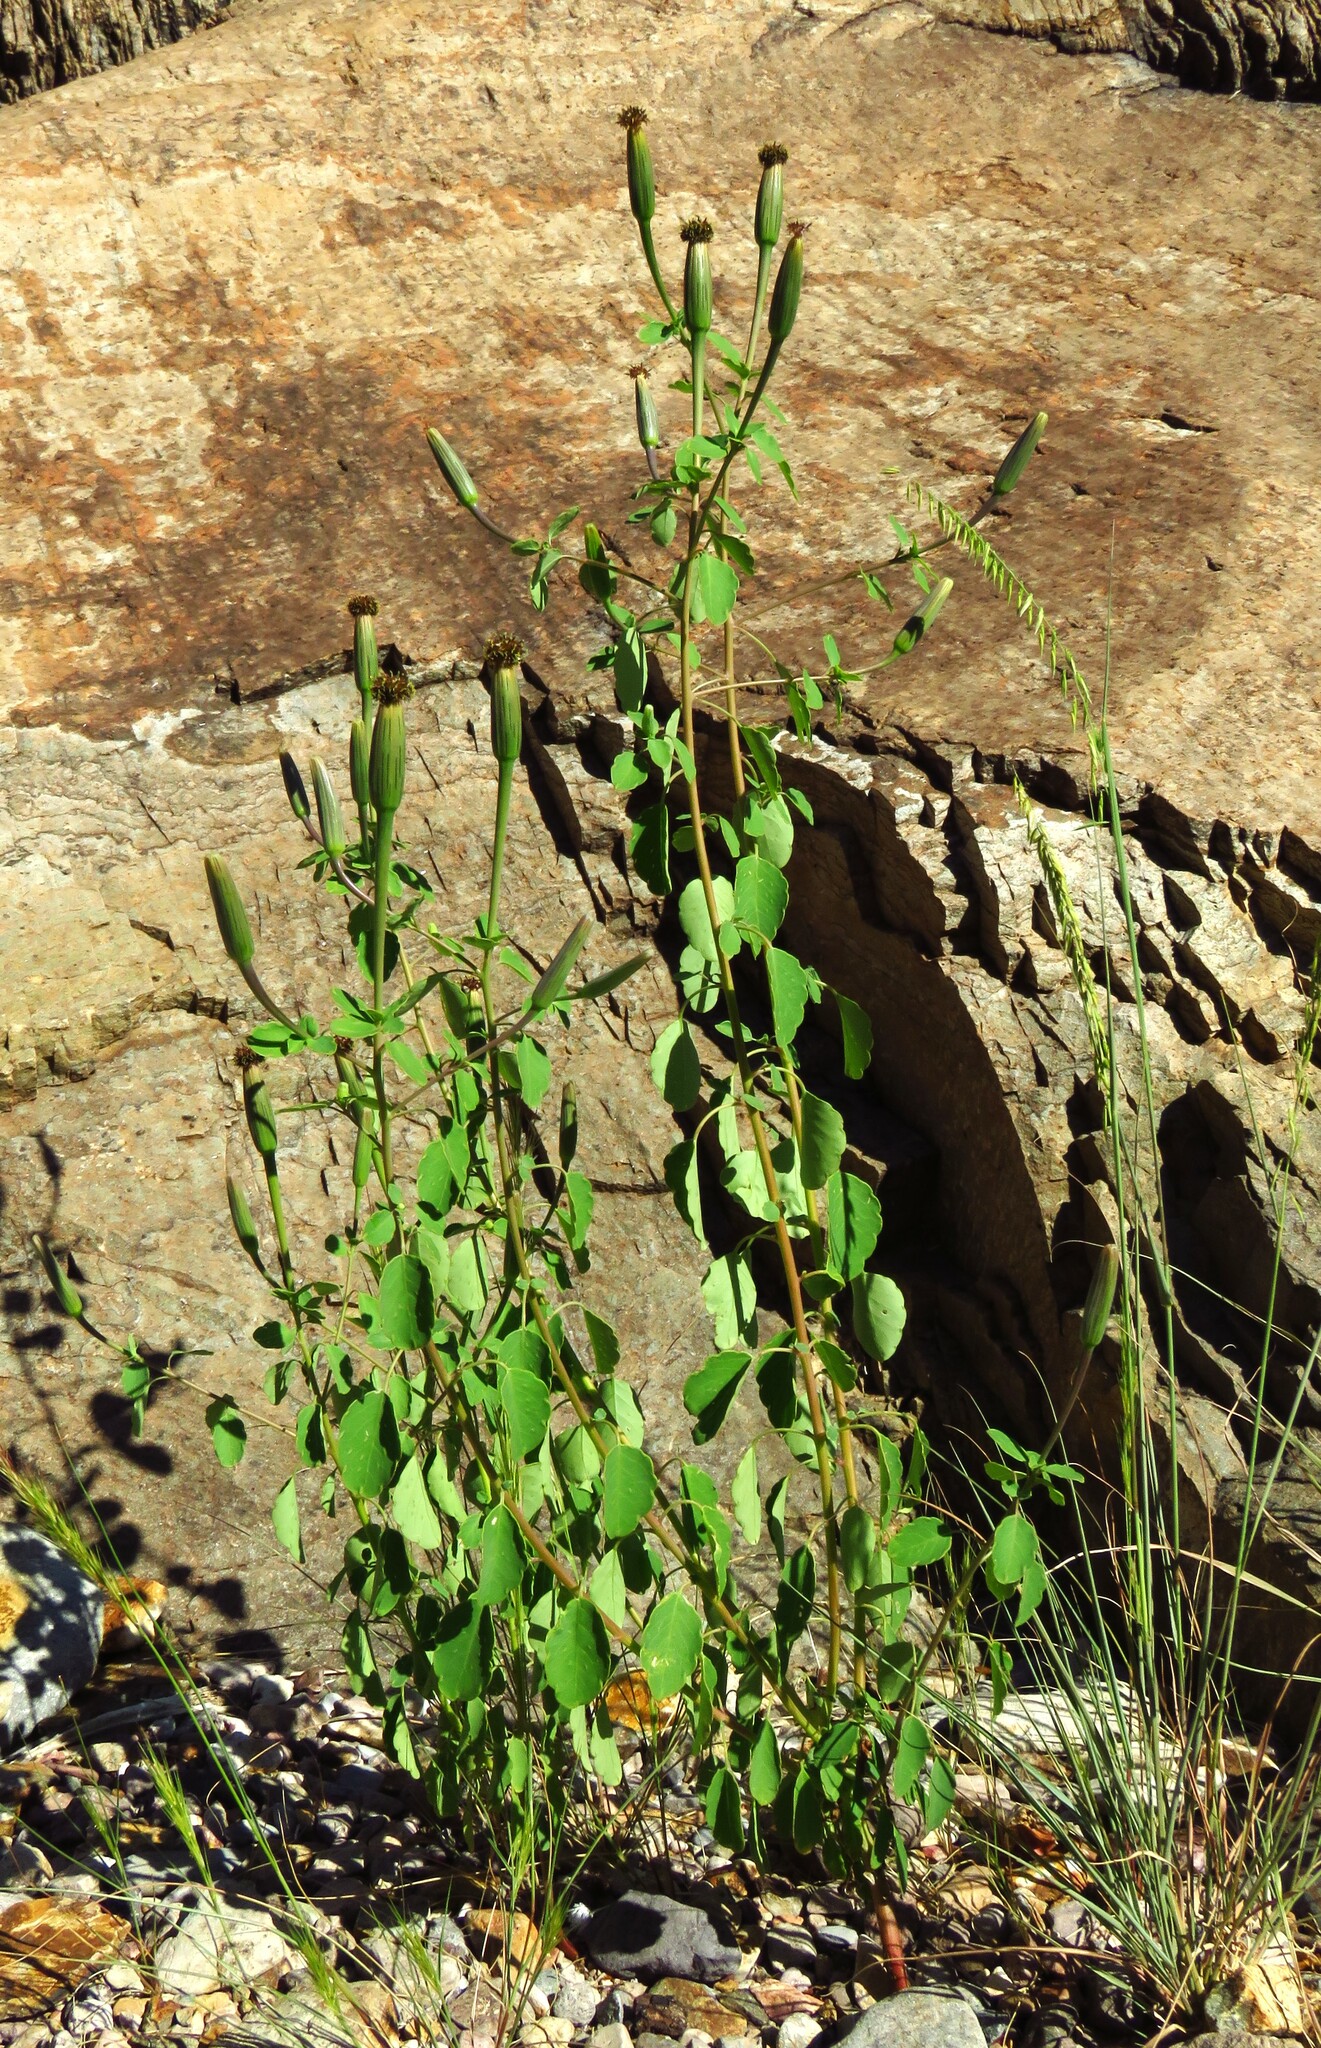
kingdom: Plantae
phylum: Tracheophyta
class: Magnoliopsida
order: Asterales
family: Asteraceae
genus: Porophyllum
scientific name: Porophyllum ruderale
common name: Yerba porosa
